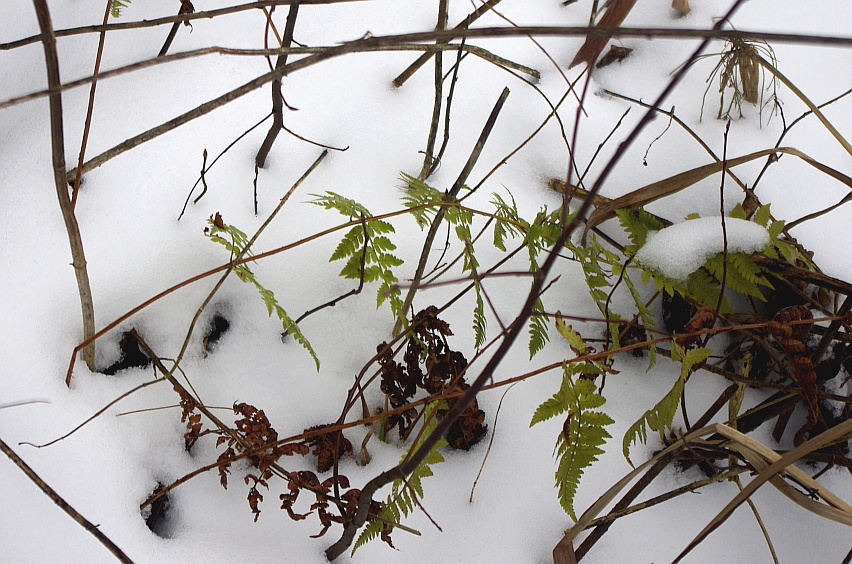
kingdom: Plantae
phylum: Tracheophyta
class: Polypodiopsida
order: Polypodiales
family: Dryopteridaceae
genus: Dryopteris
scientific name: Dryopteris carthusiana
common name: Narrow buckler-fern
